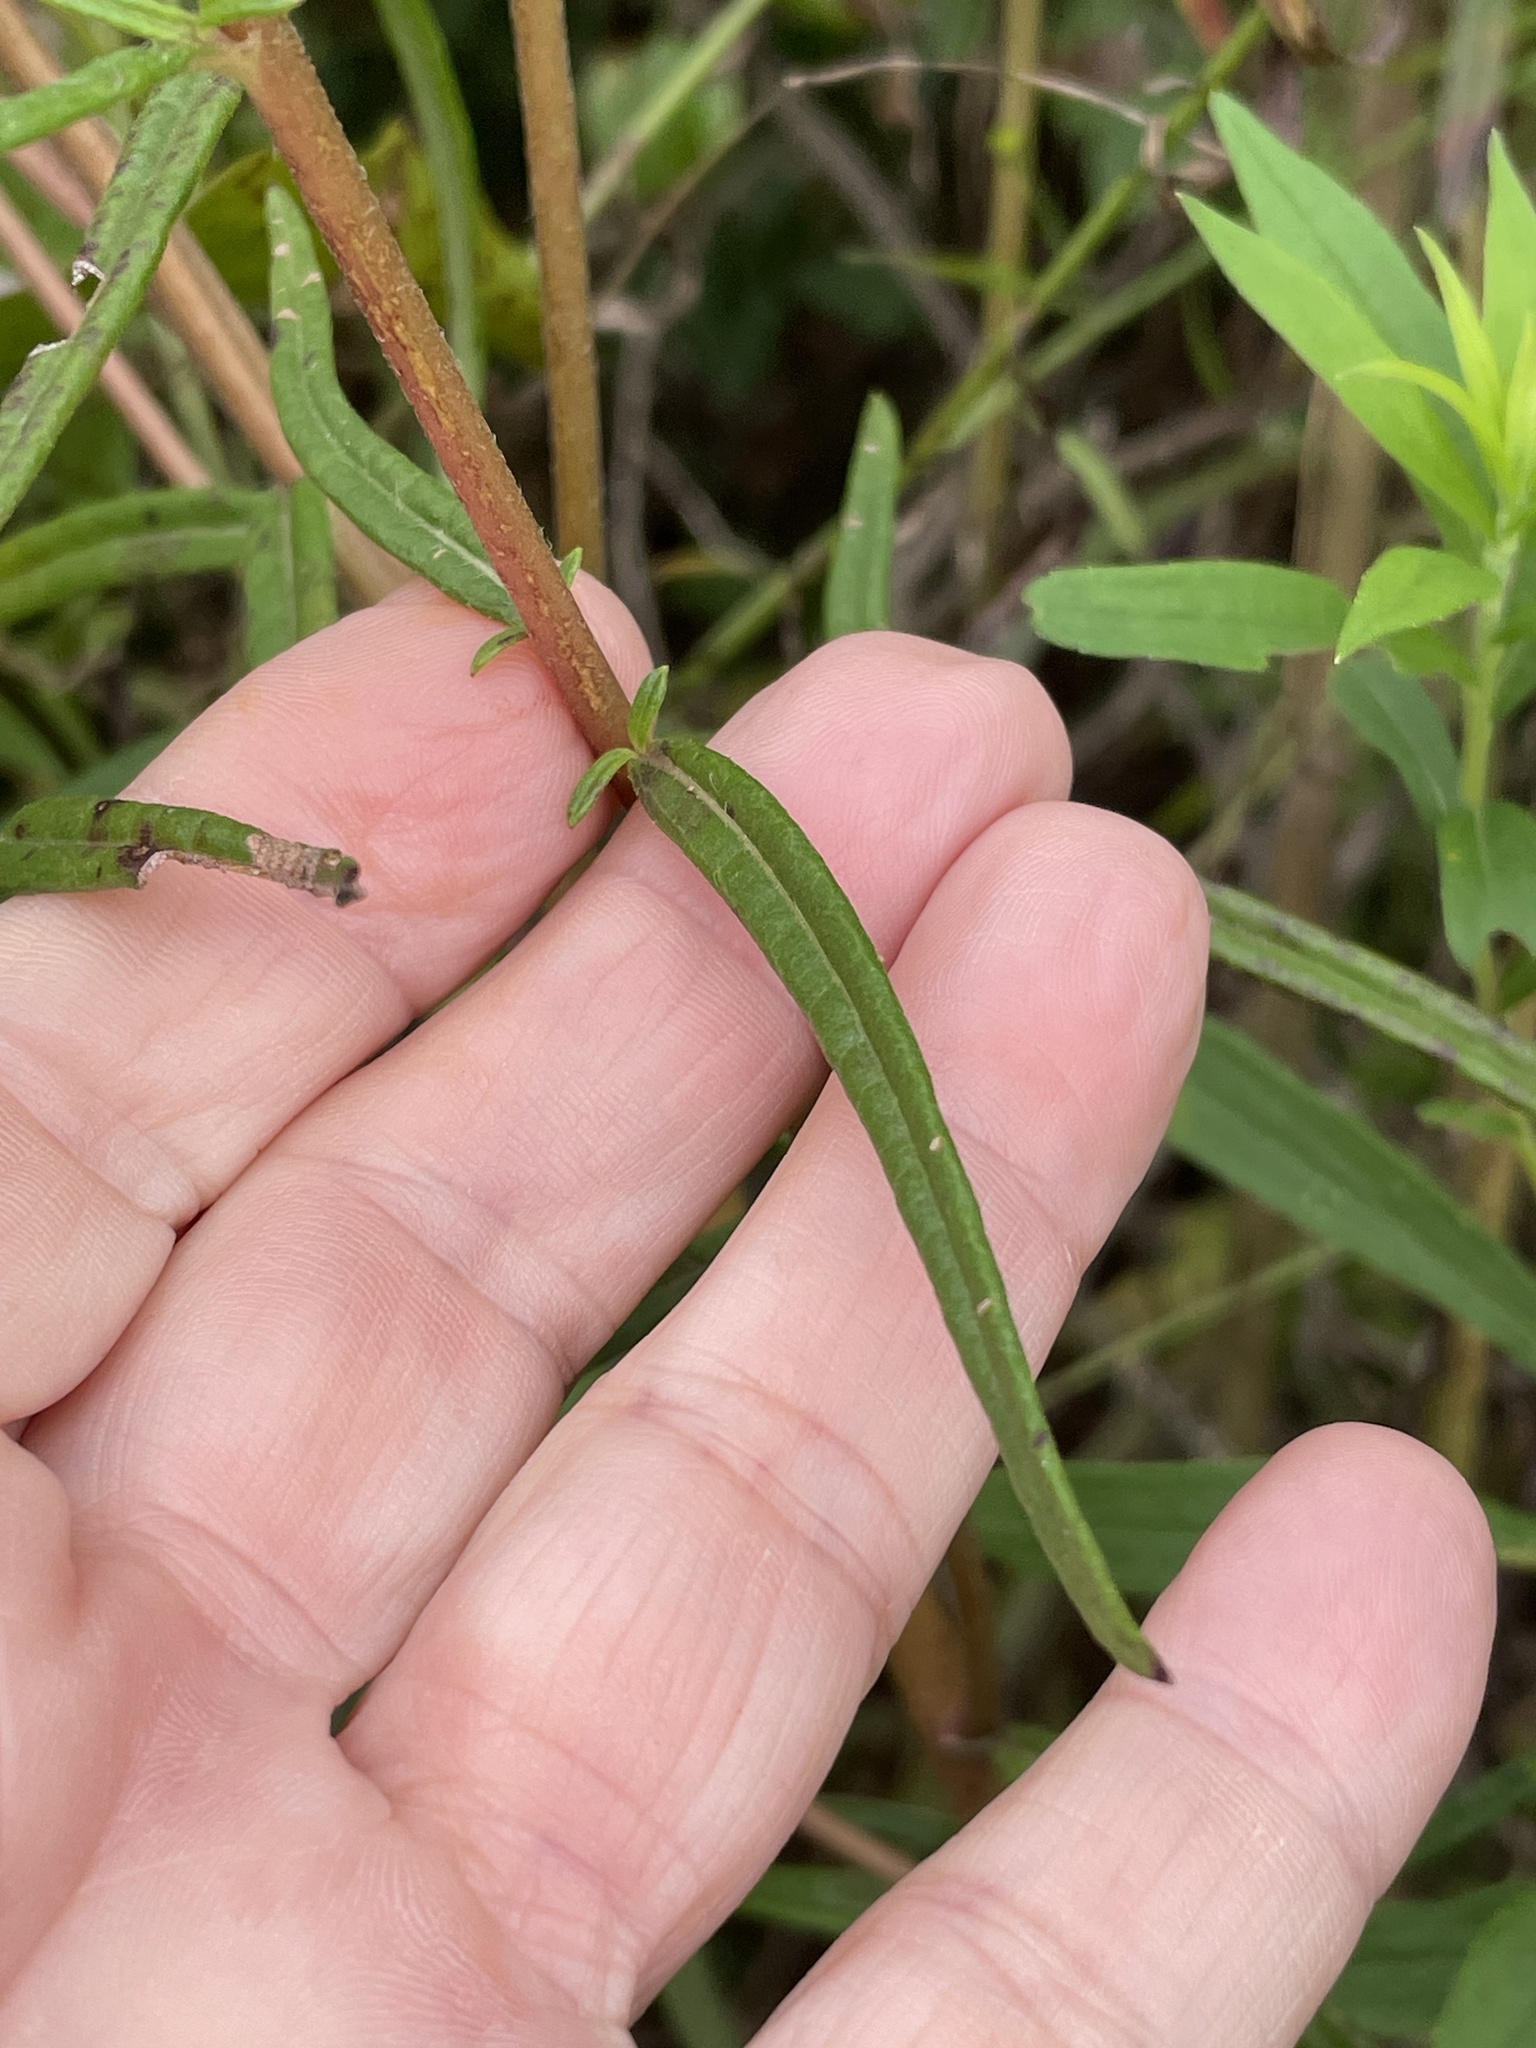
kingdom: Plantae
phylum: Tracheophyta
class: Magnoliopsida
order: Asterales
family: Asteraceae
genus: Helianthus
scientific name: Helianthus angustifolius
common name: Swamp sunflower
